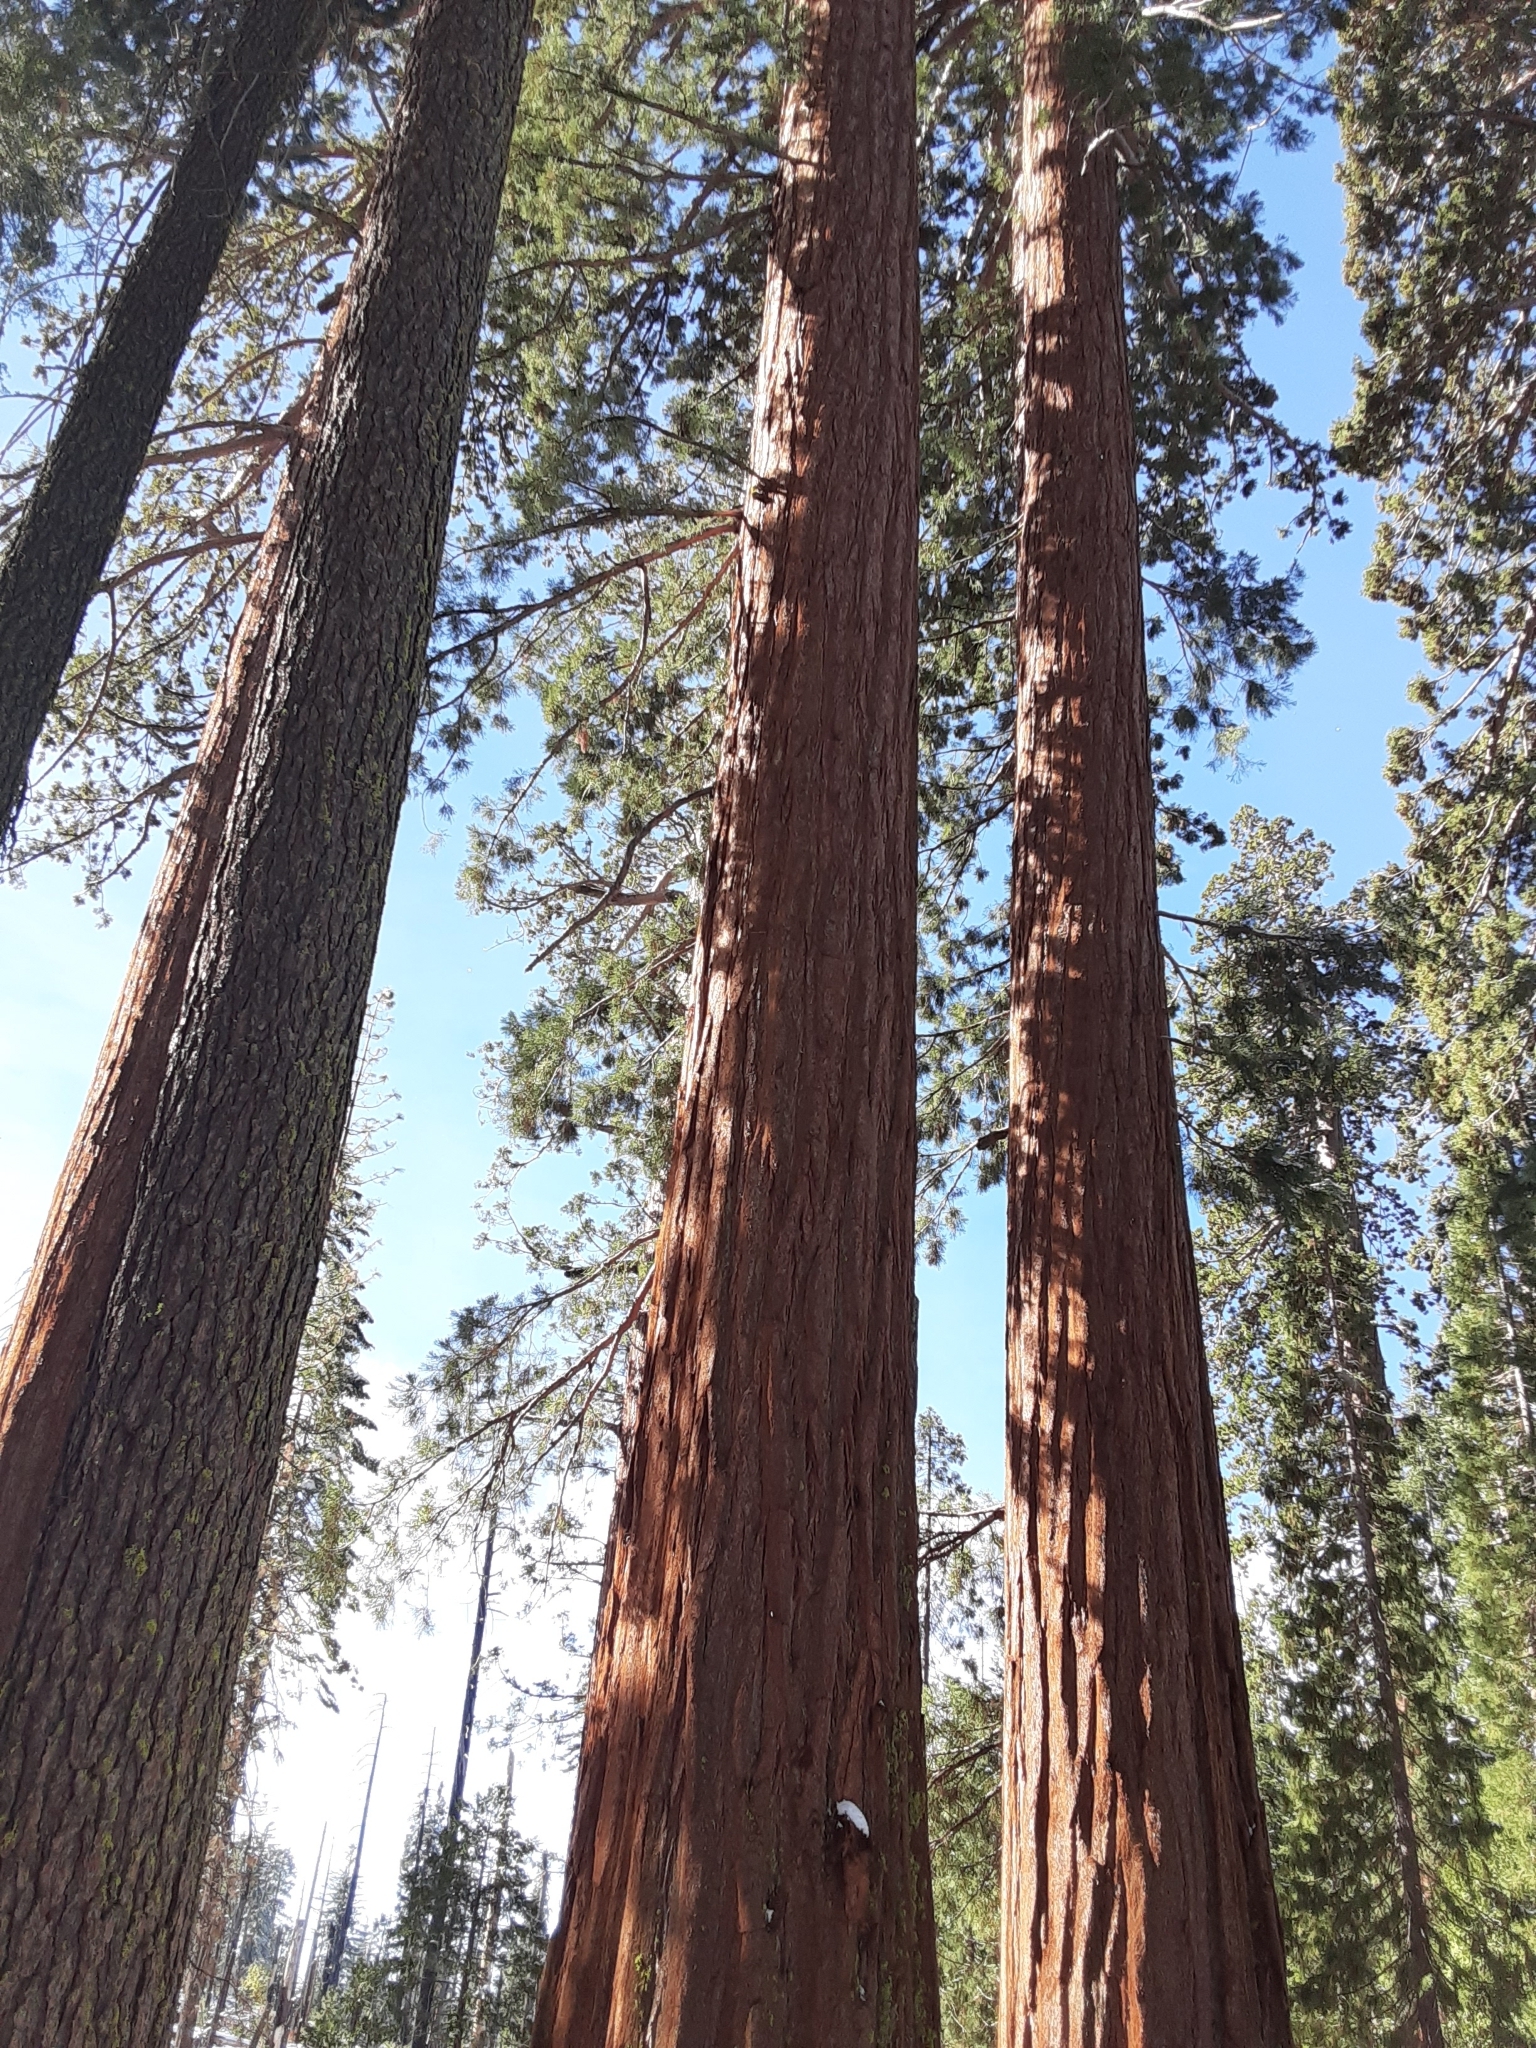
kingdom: Plantae
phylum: Tracheophyta
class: Pinopsida
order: Pinales
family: Cupressaceae
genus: Sequoiadendron
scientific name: Sequoiadendron giganteum
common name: Wellingtonia
